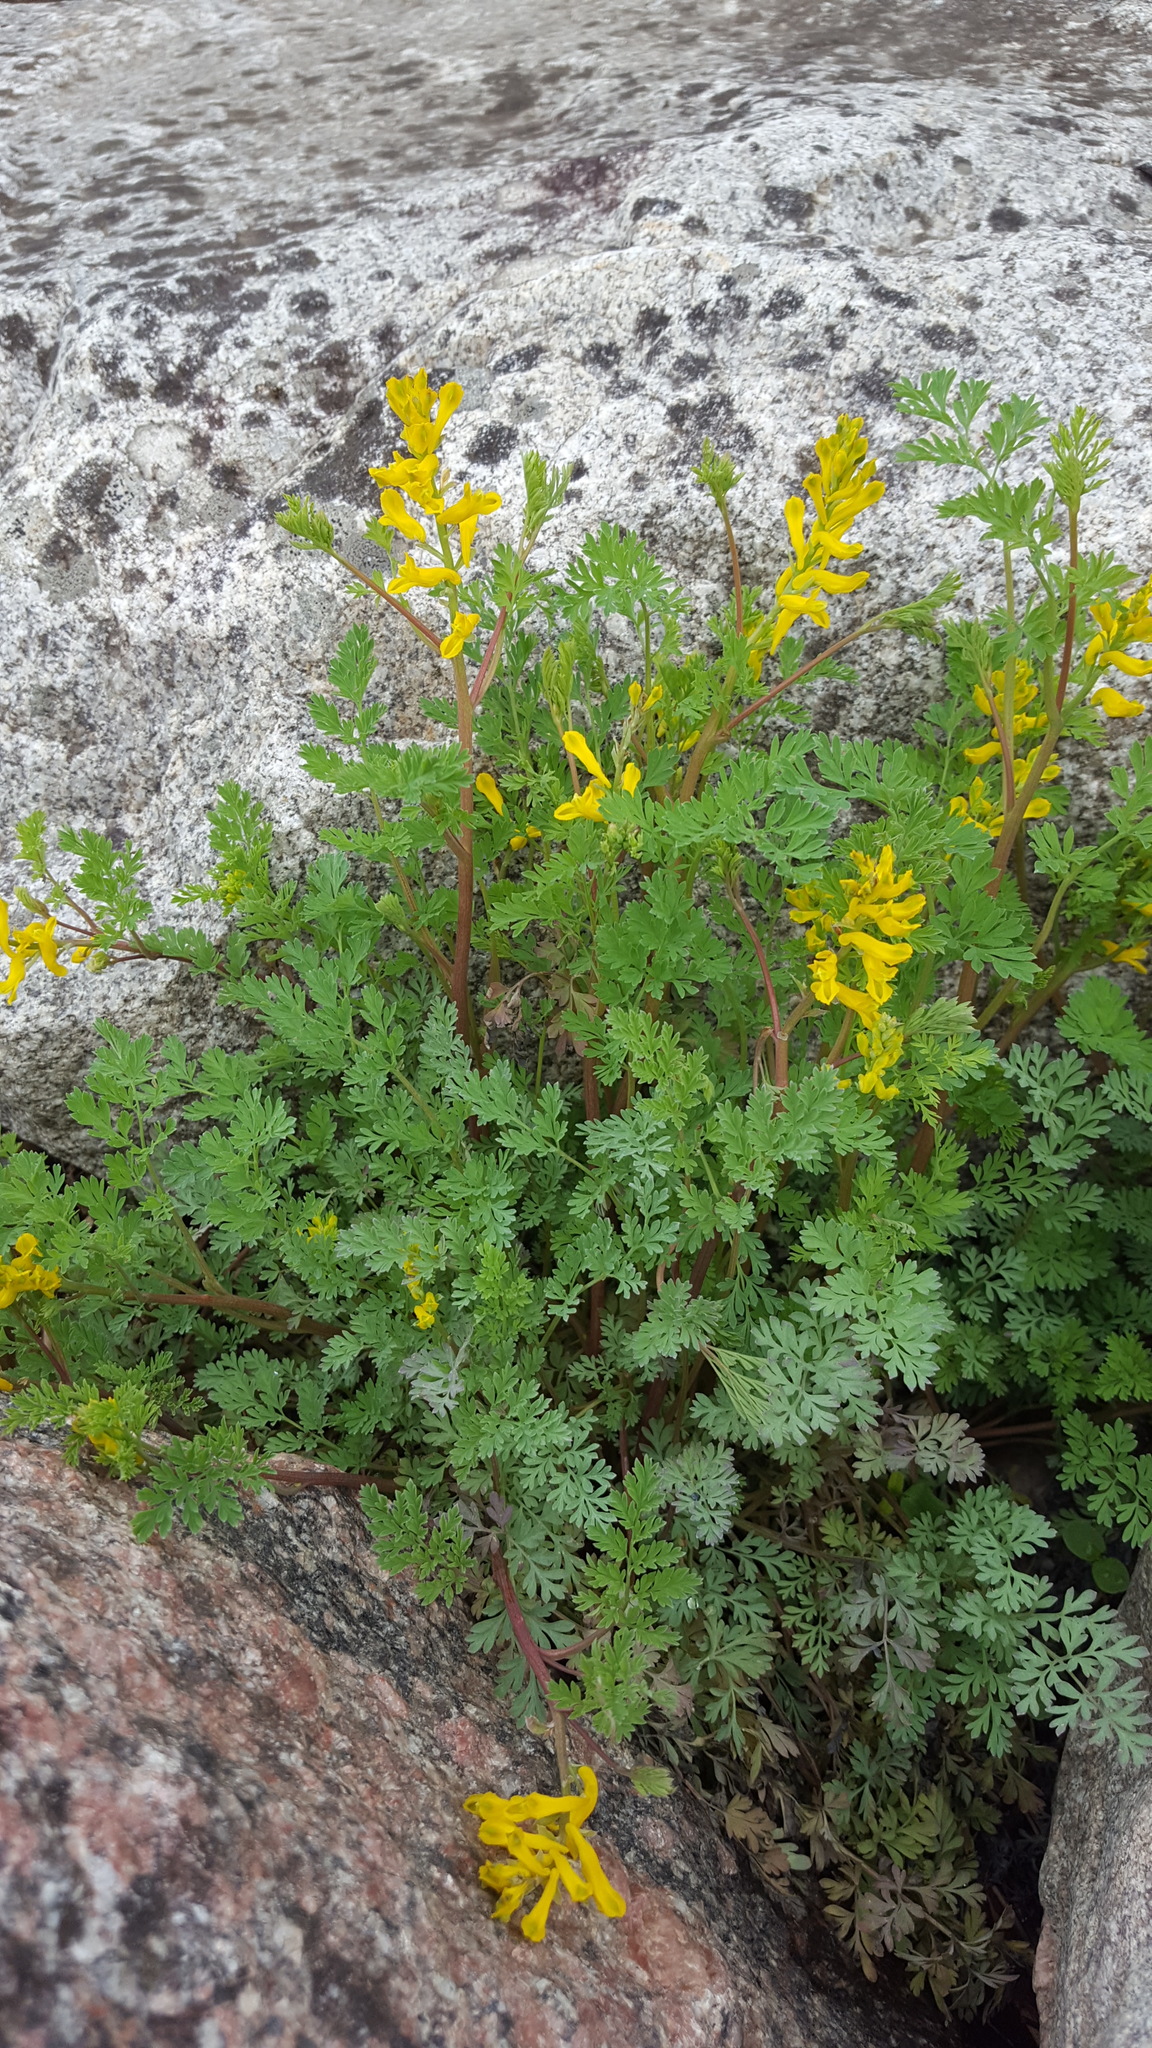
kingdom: Plantae
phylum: Tracheophyta
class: Magnoliopsida
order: Ranunculales
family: Papaveraceae
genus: Corydalis
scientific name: Corydalis aurea
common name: Golden corydalis
